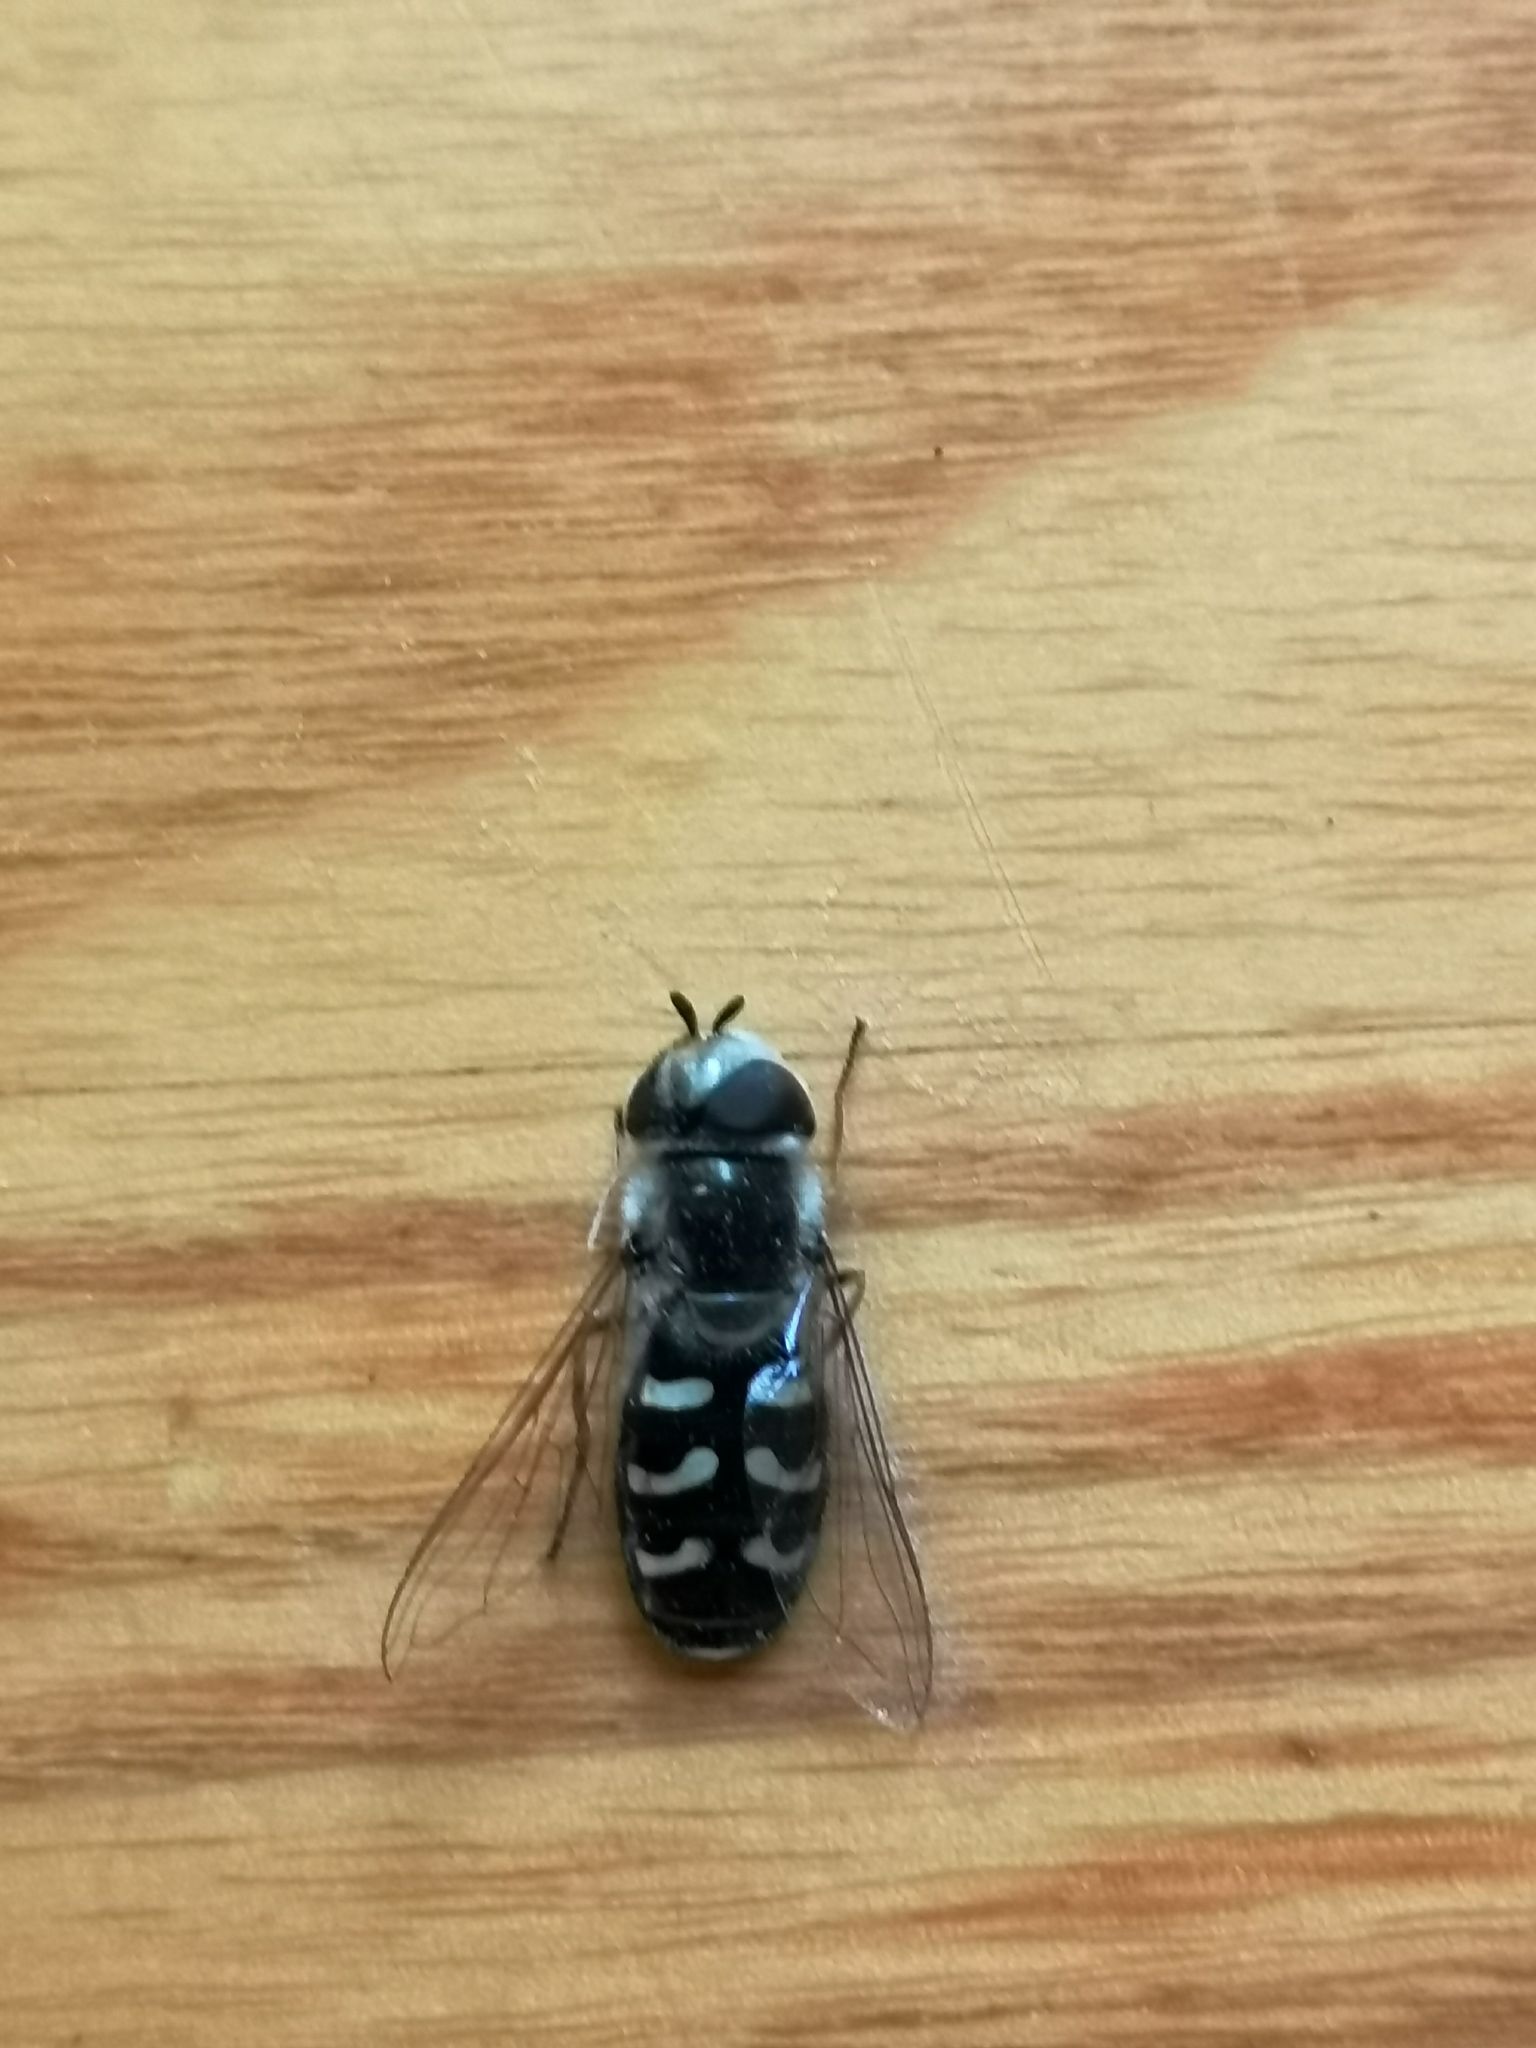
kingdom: Animalia
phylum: Arthropoda
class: Insecta
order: Diptera
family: Syrphidae
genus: Scaeva
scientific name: Scaeva pyrastri
